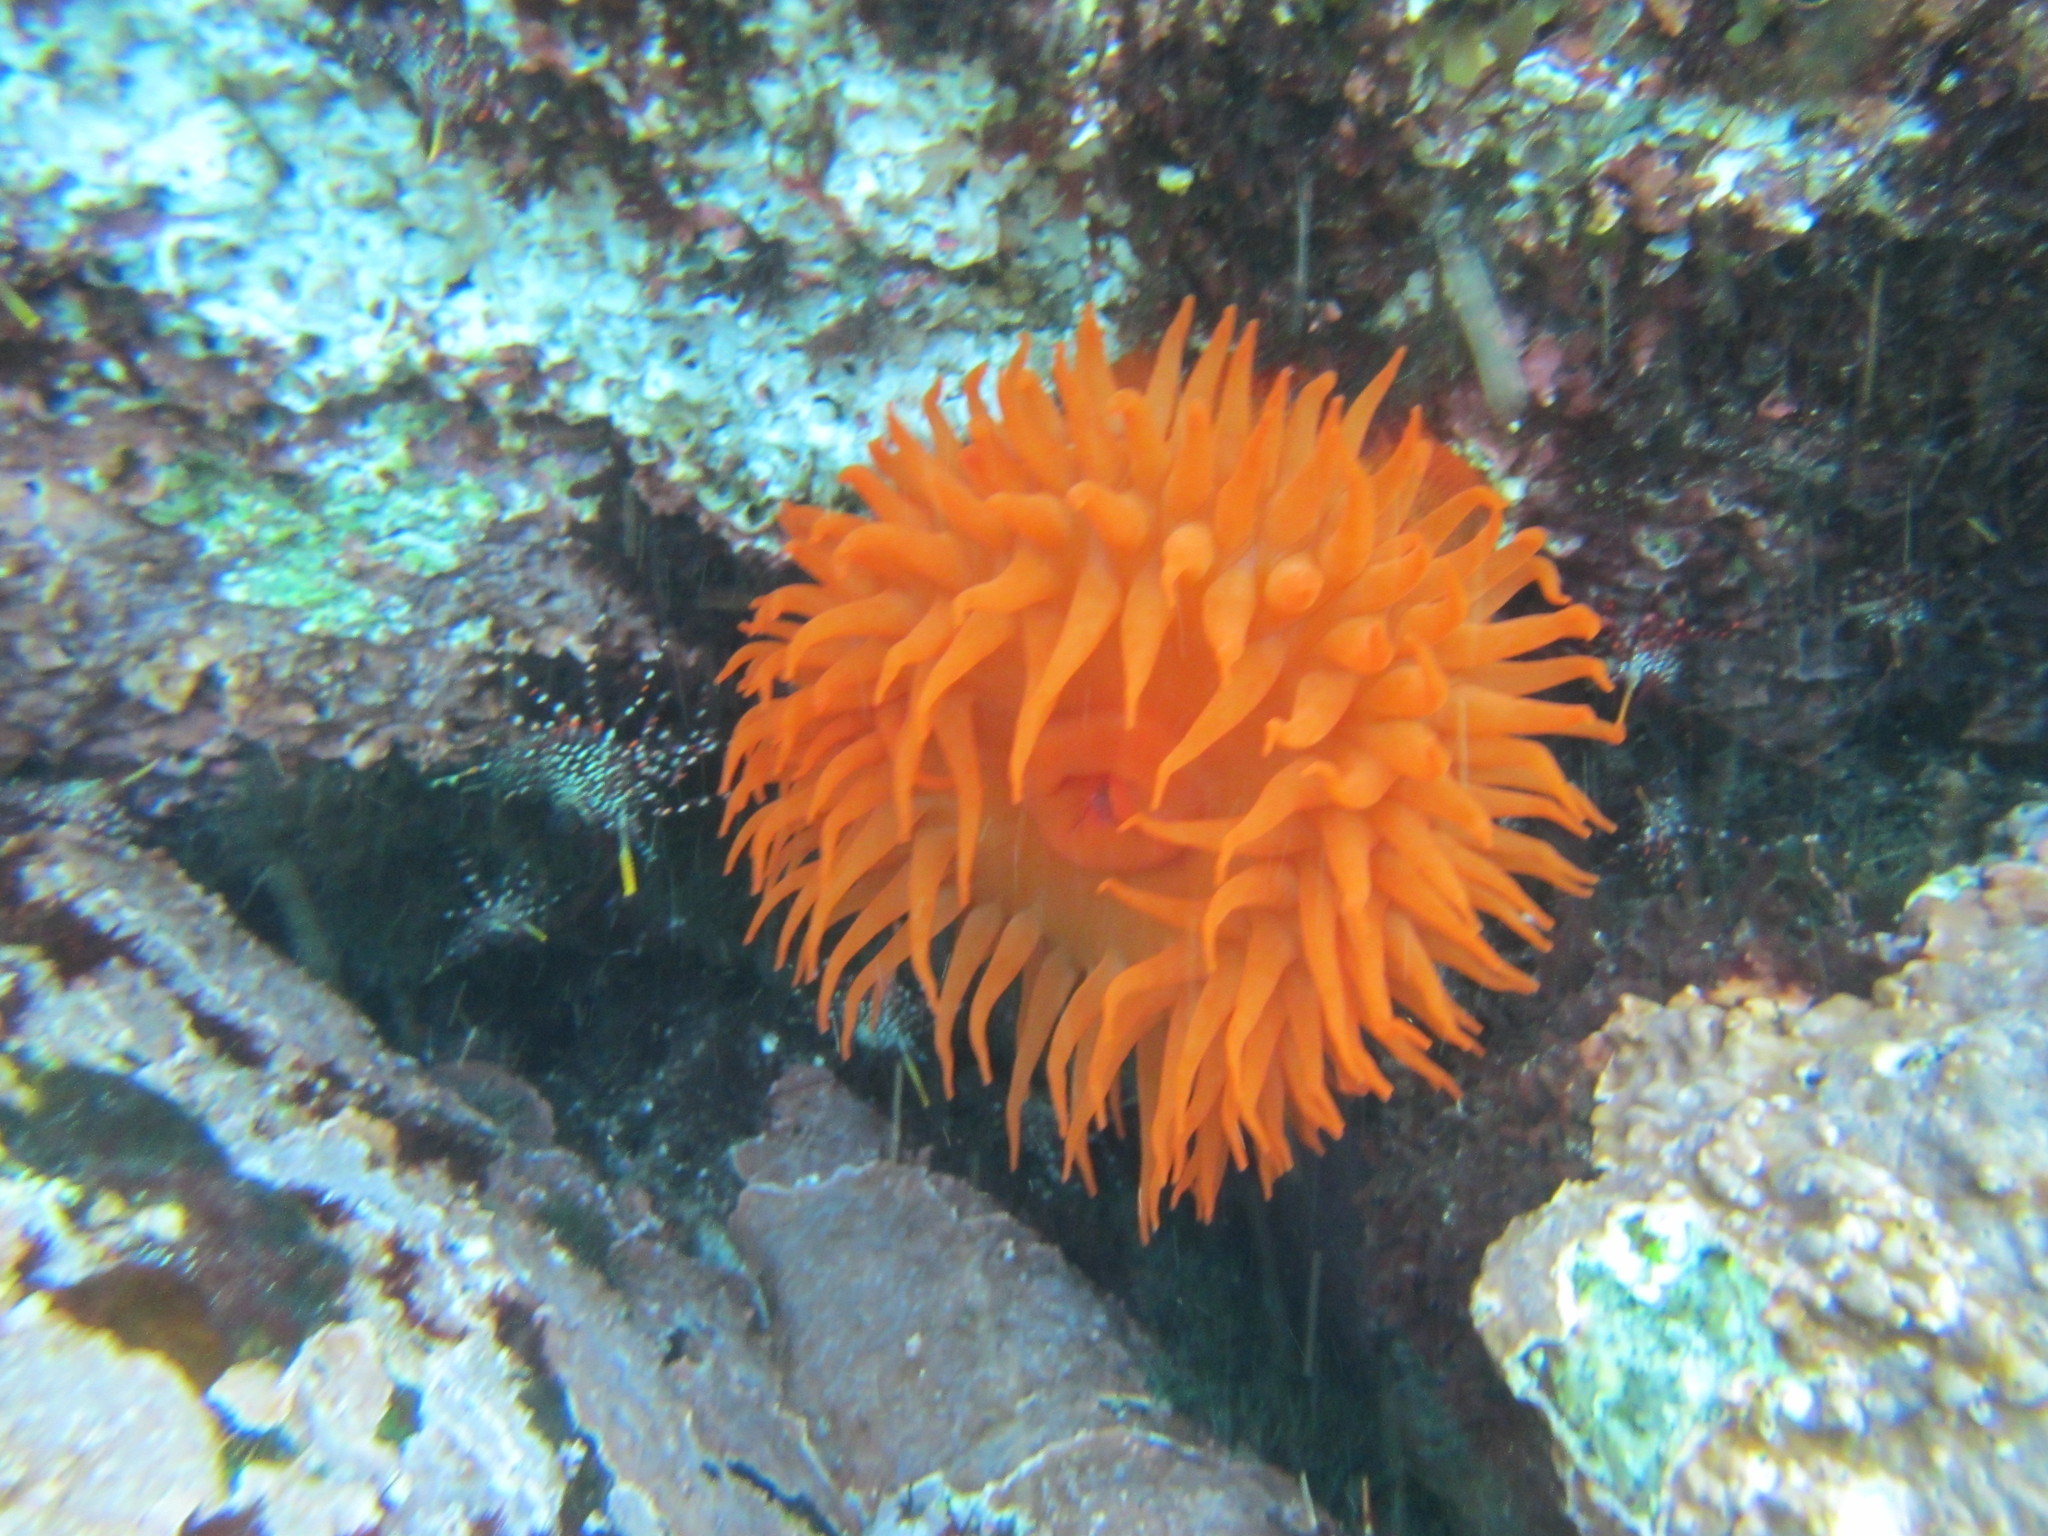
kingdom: Animalia
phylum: Cnidaria
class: Anthozoa
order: Actiniaria
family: Actiniidae
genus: Phymanthea
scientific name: Phymanthea pluvia
